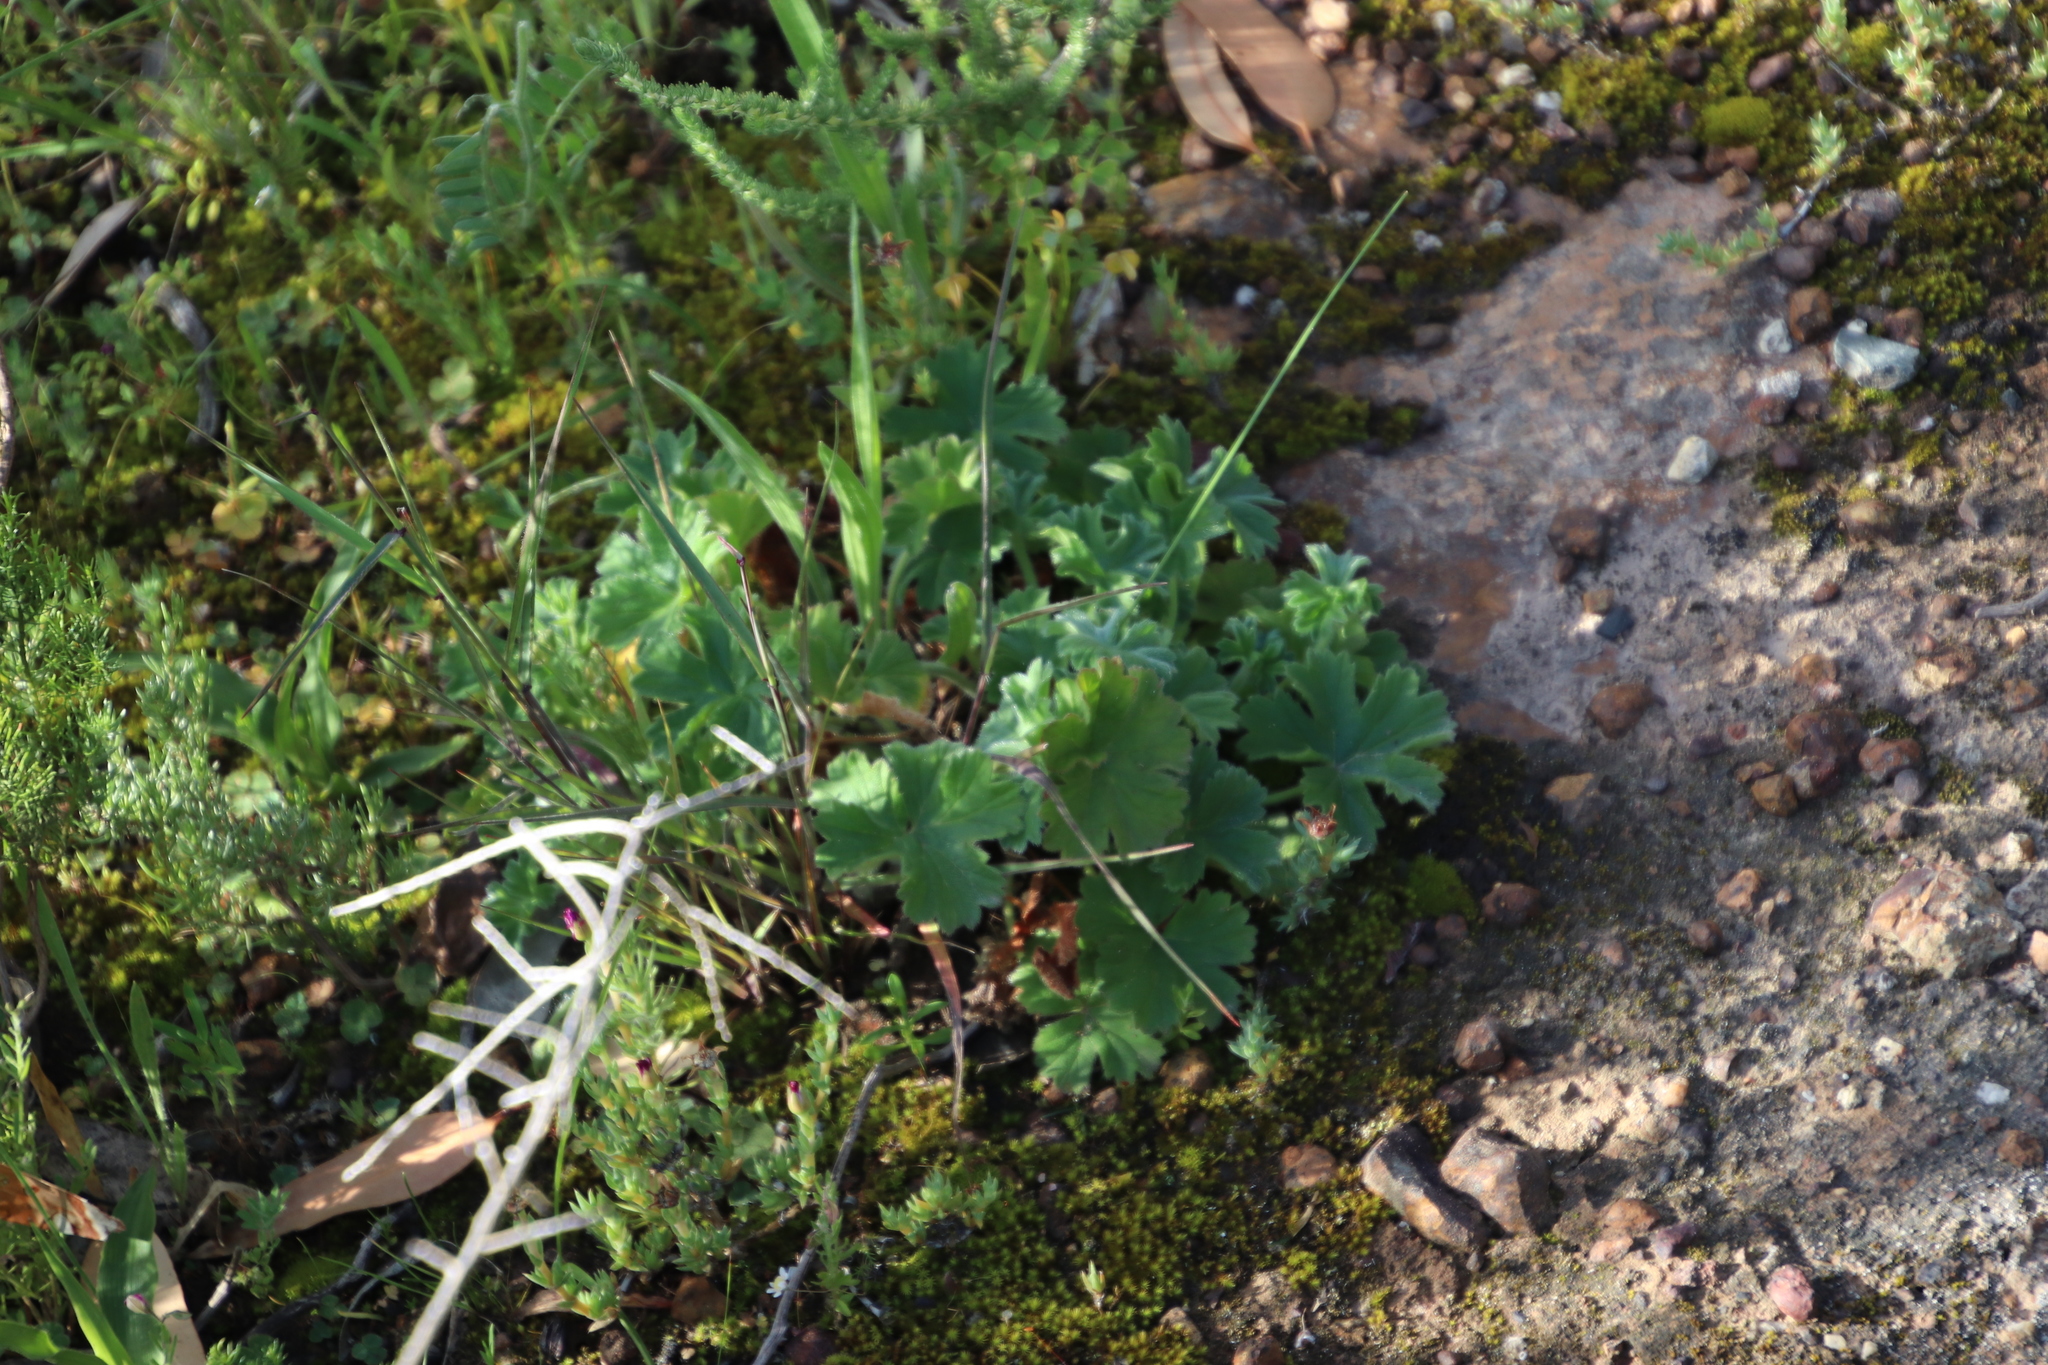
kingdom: Plantae
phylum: Tracheophyta
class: Magnoliopsida
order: Geraniales
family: Geraniaceae
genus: Pelargonium
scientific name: Pelargonium alchemilloides
